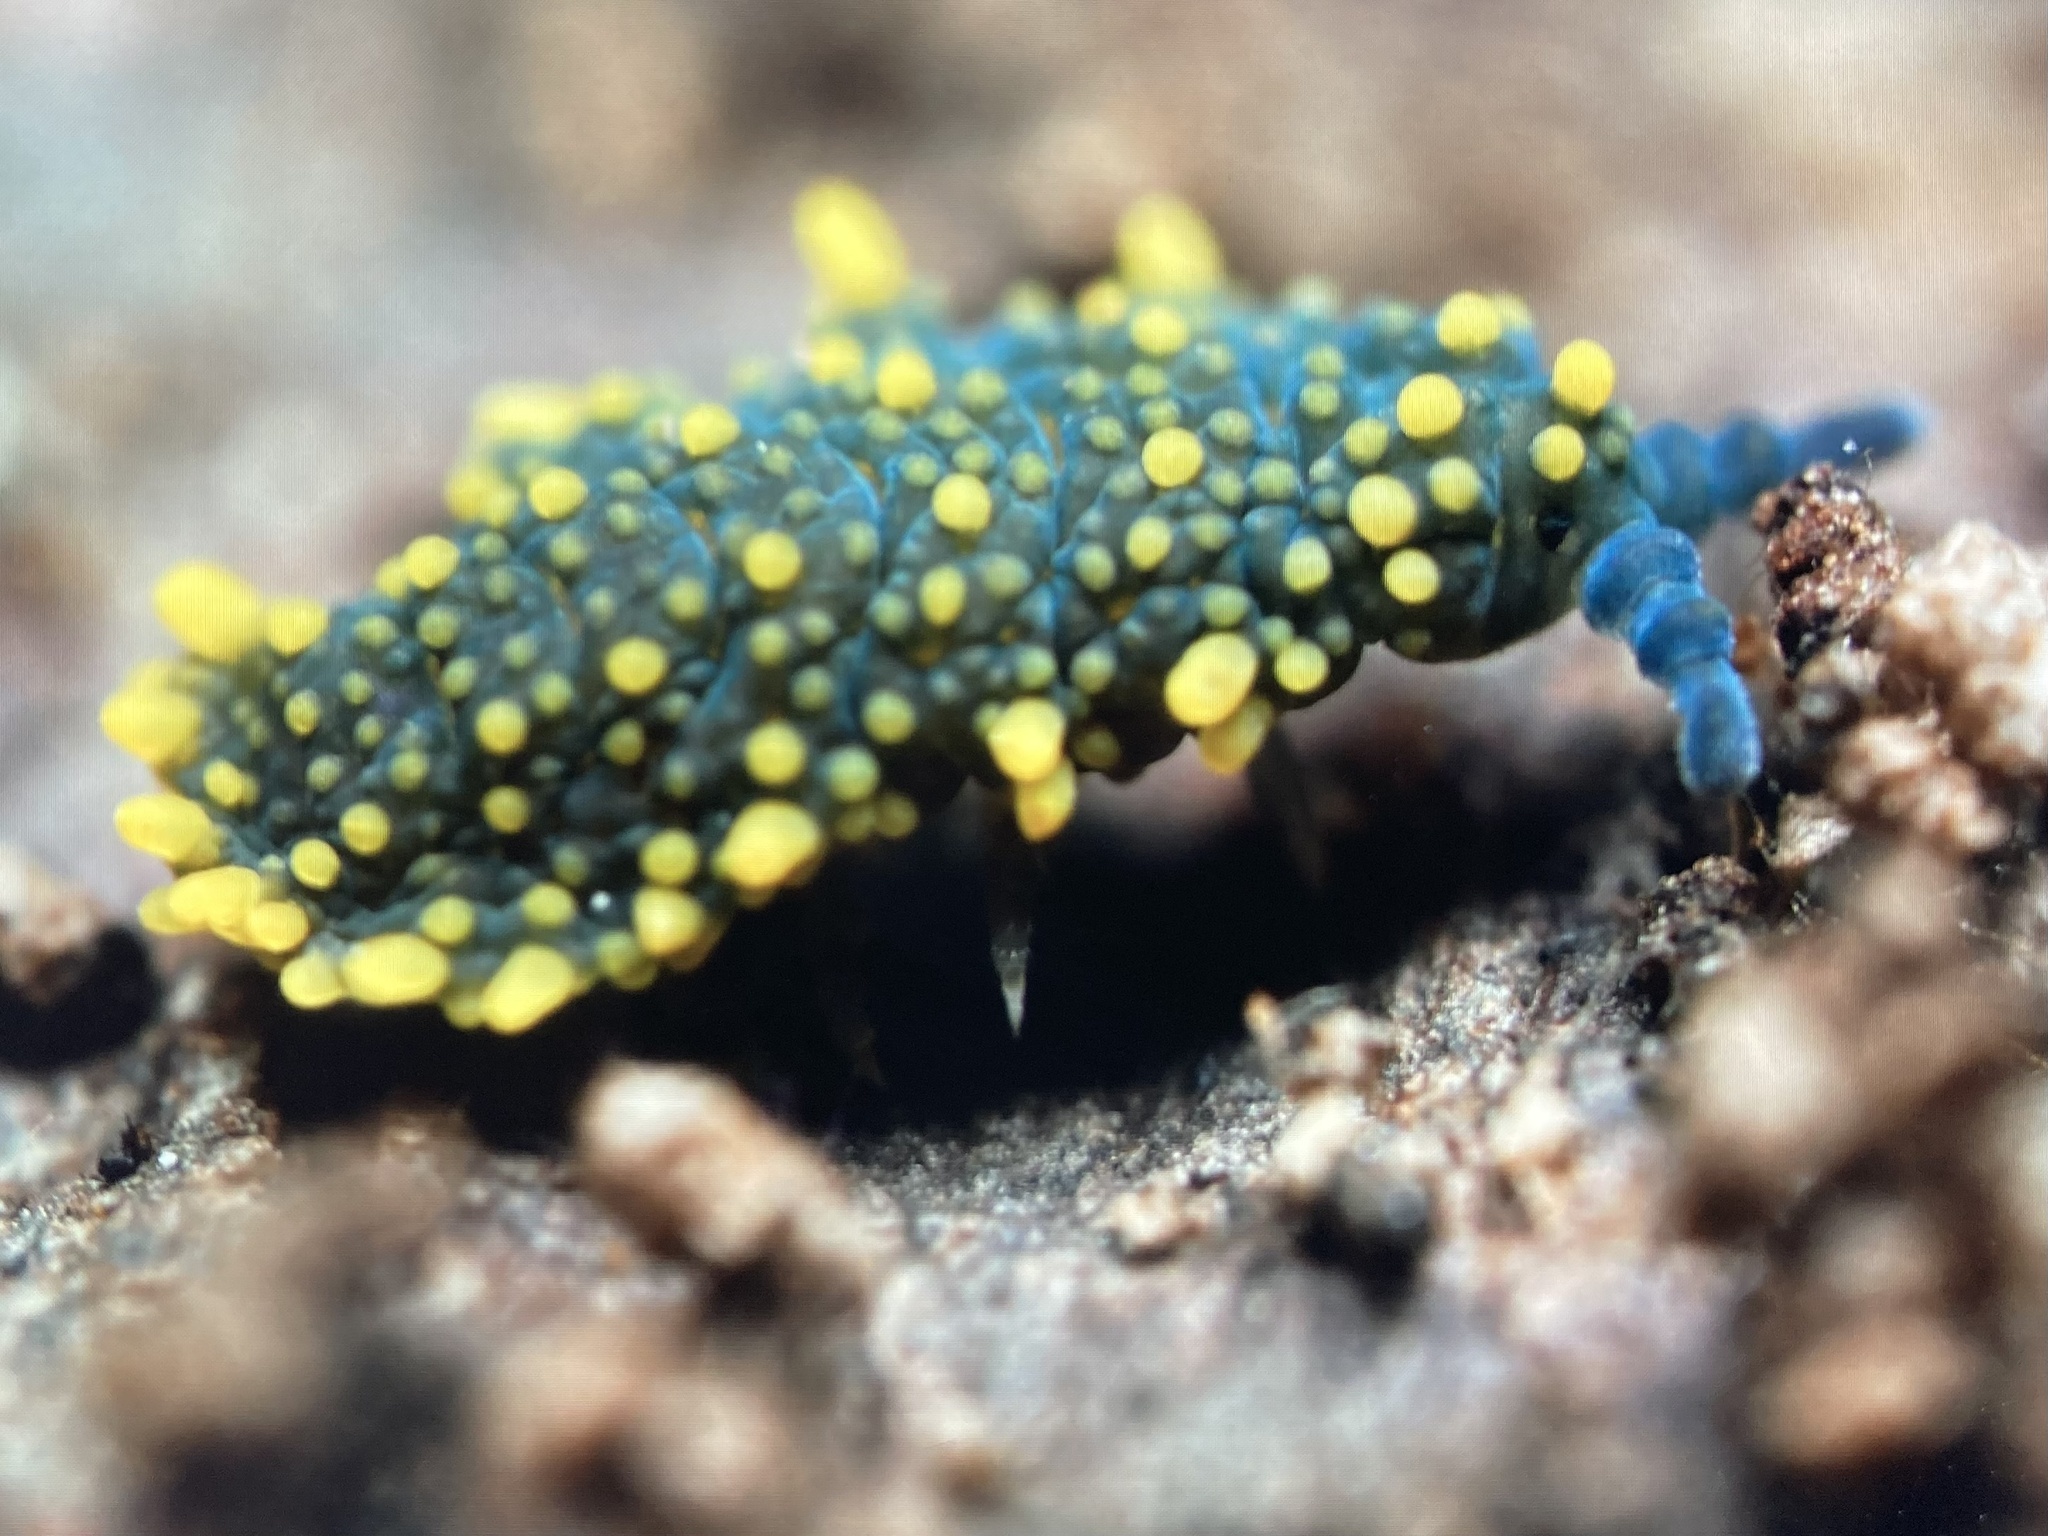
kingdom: Animalia
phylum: Arthropoda
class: Collembola
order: Poduromorpha
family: Neanuridae
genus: Holacanthella
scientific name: Holacanthella paucispinosa
